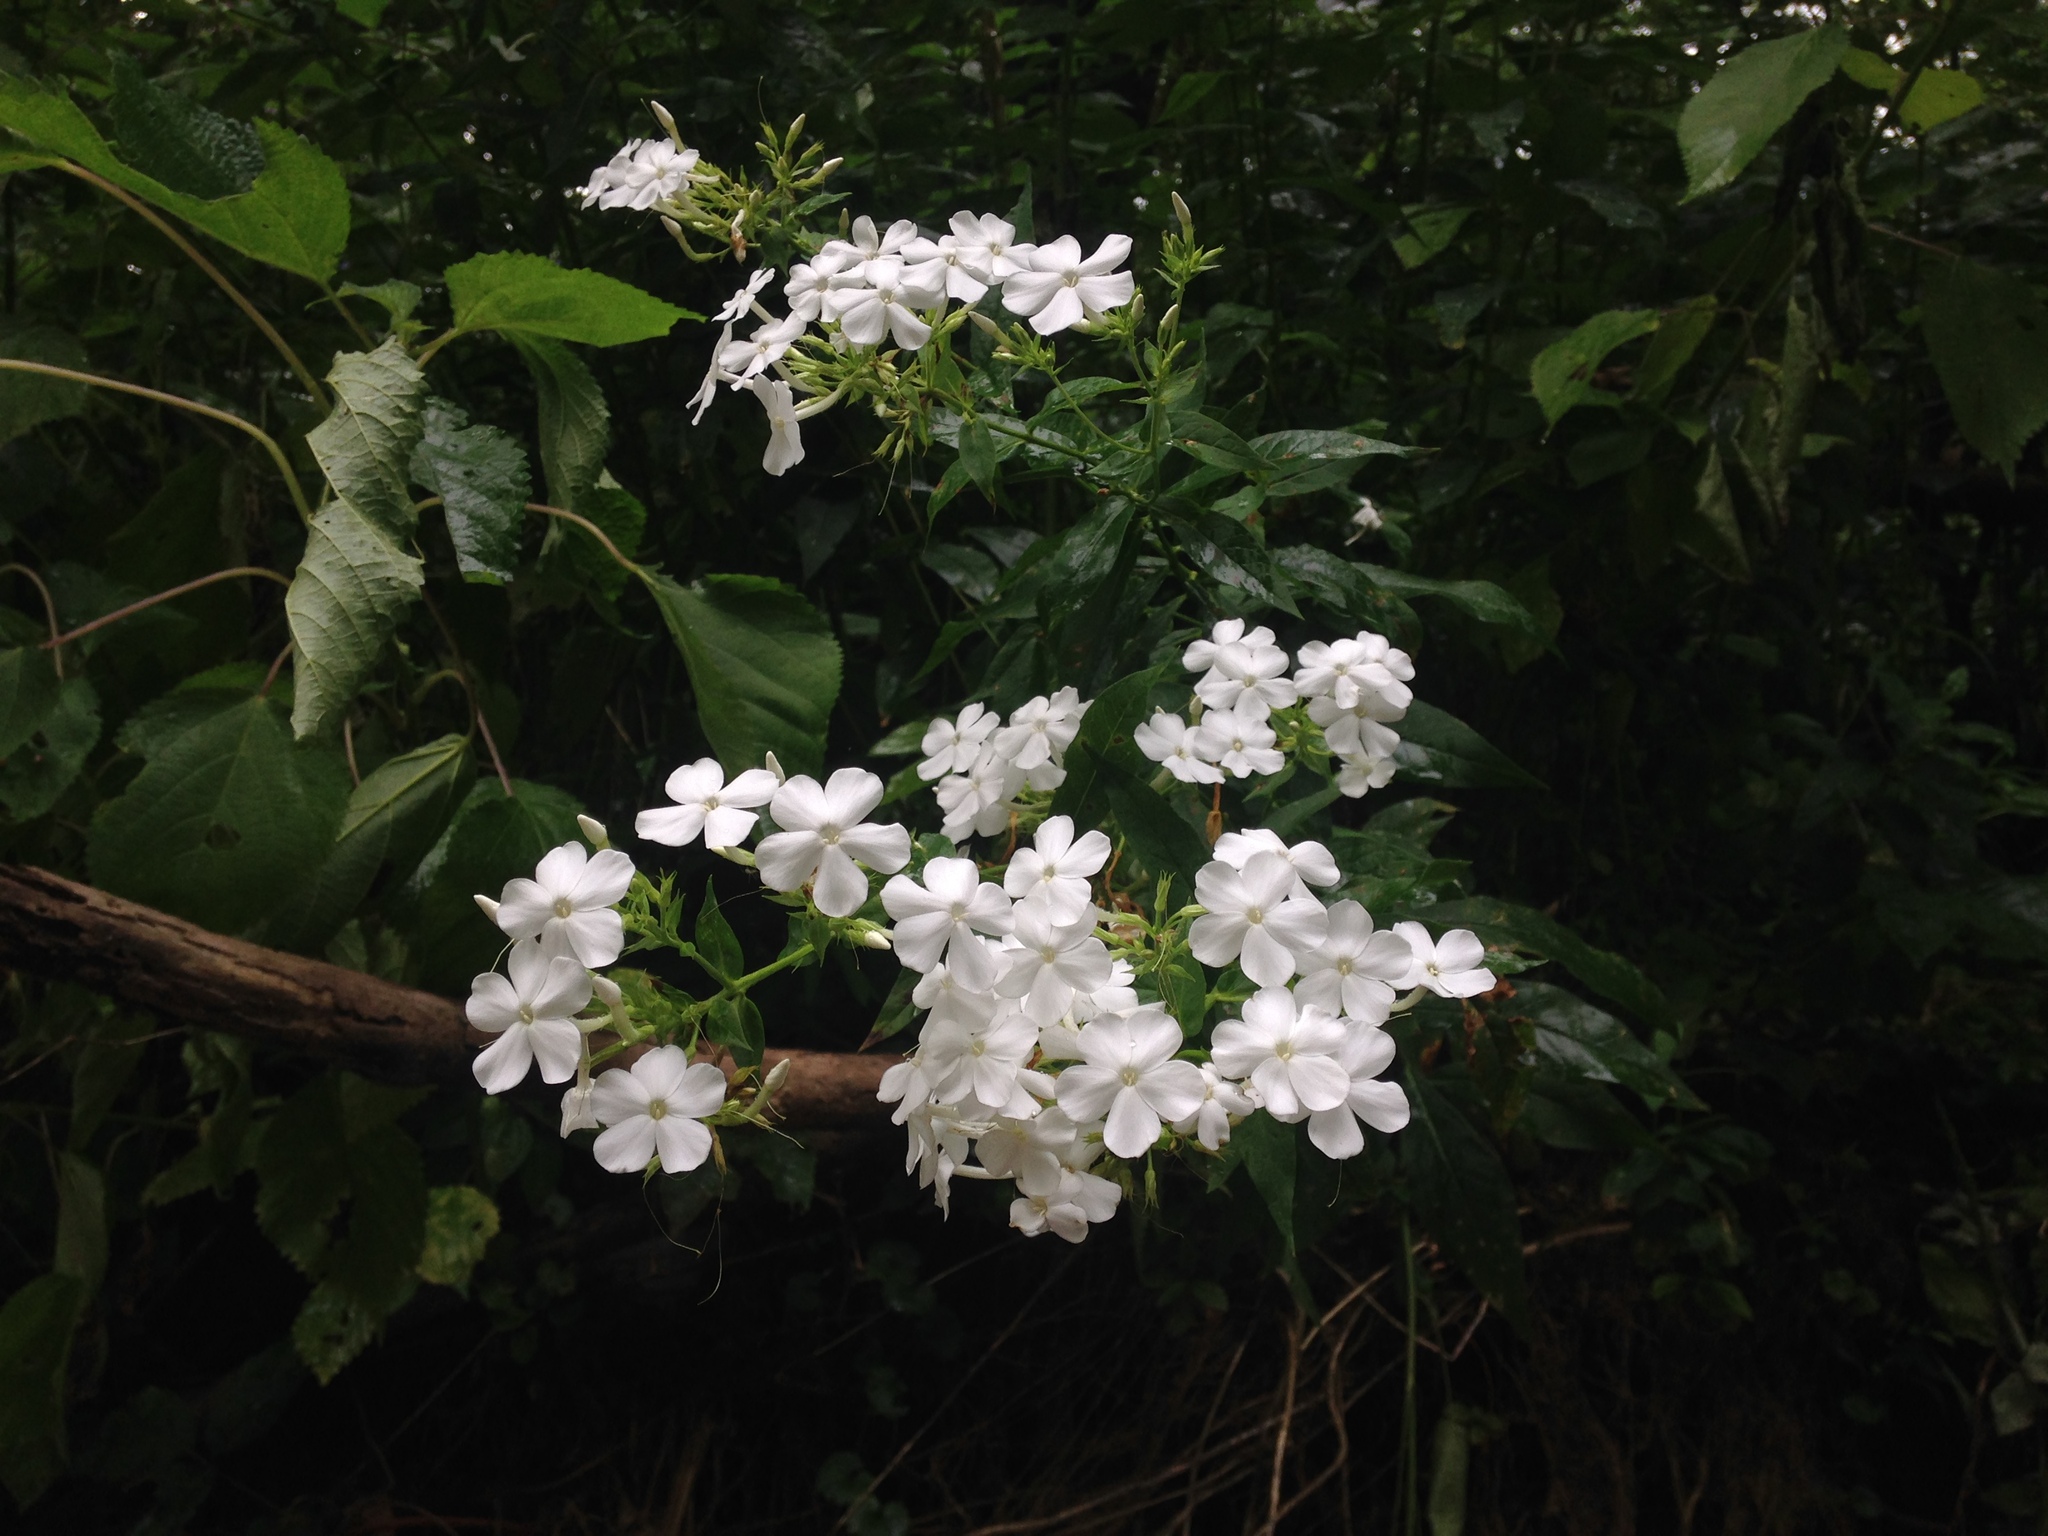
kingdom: Plantae
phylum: Tracheophyta
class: Magnoliopsida
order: Ericales
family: Polemoniaceae
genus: Phlox
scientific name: Phlox paniculata
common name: Fall phlox
